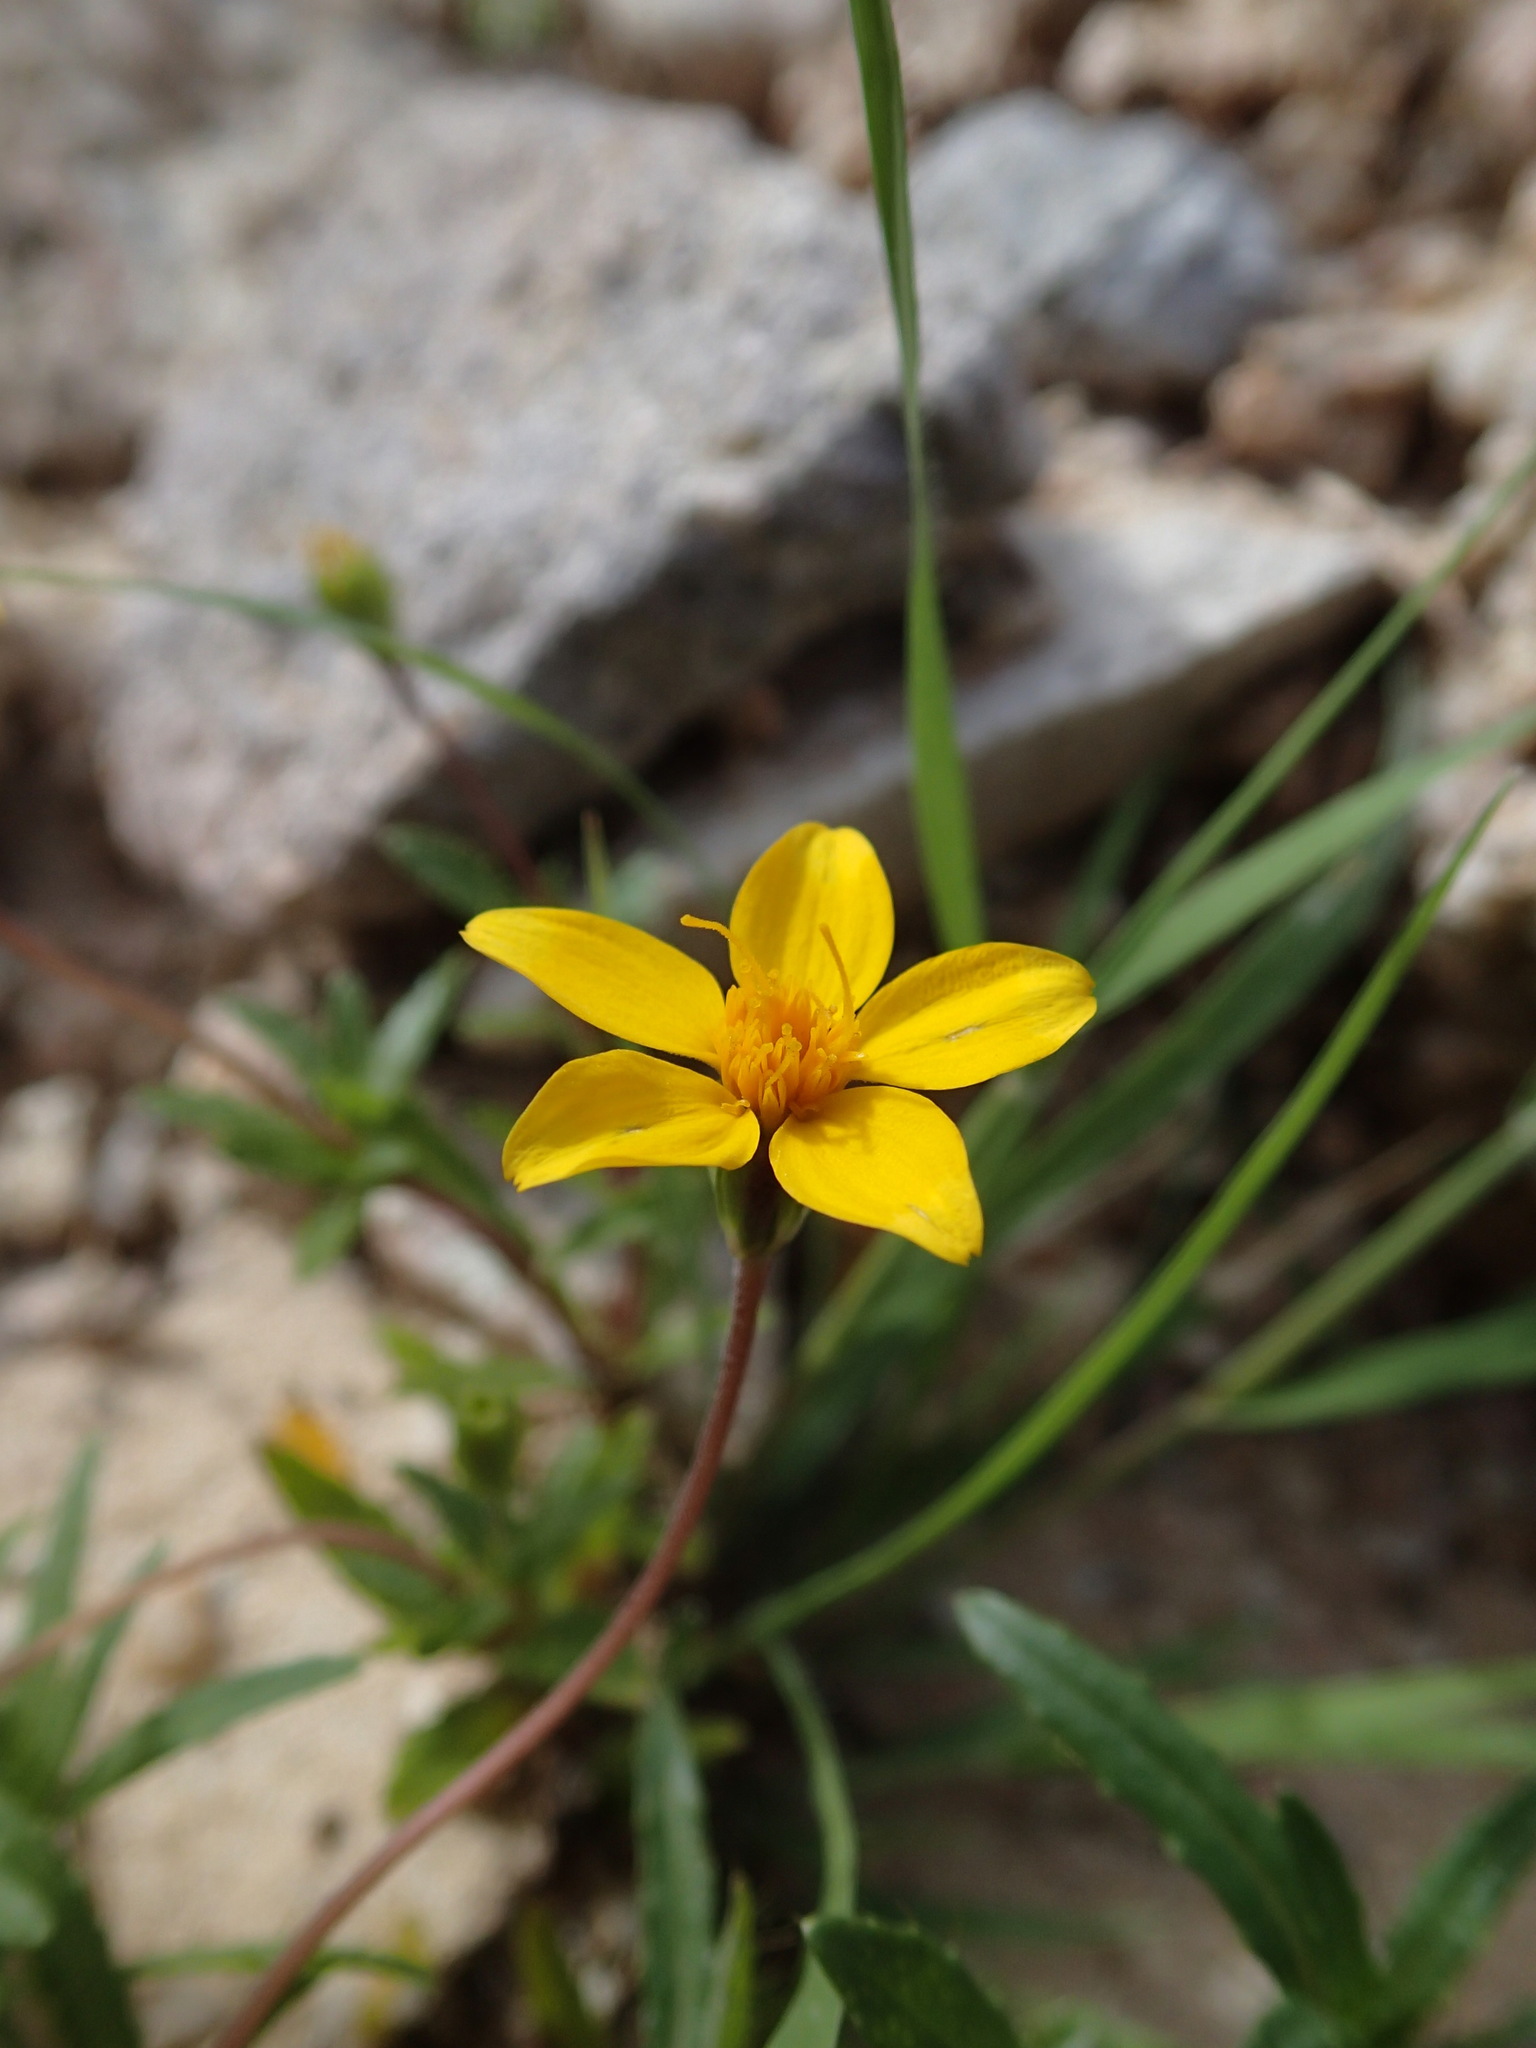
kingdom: Plantae
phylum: Tracheophyta
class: Magnoliopsida
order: Asterales
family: Asteraceae
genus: Pectis
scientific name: Pectis multiseta
